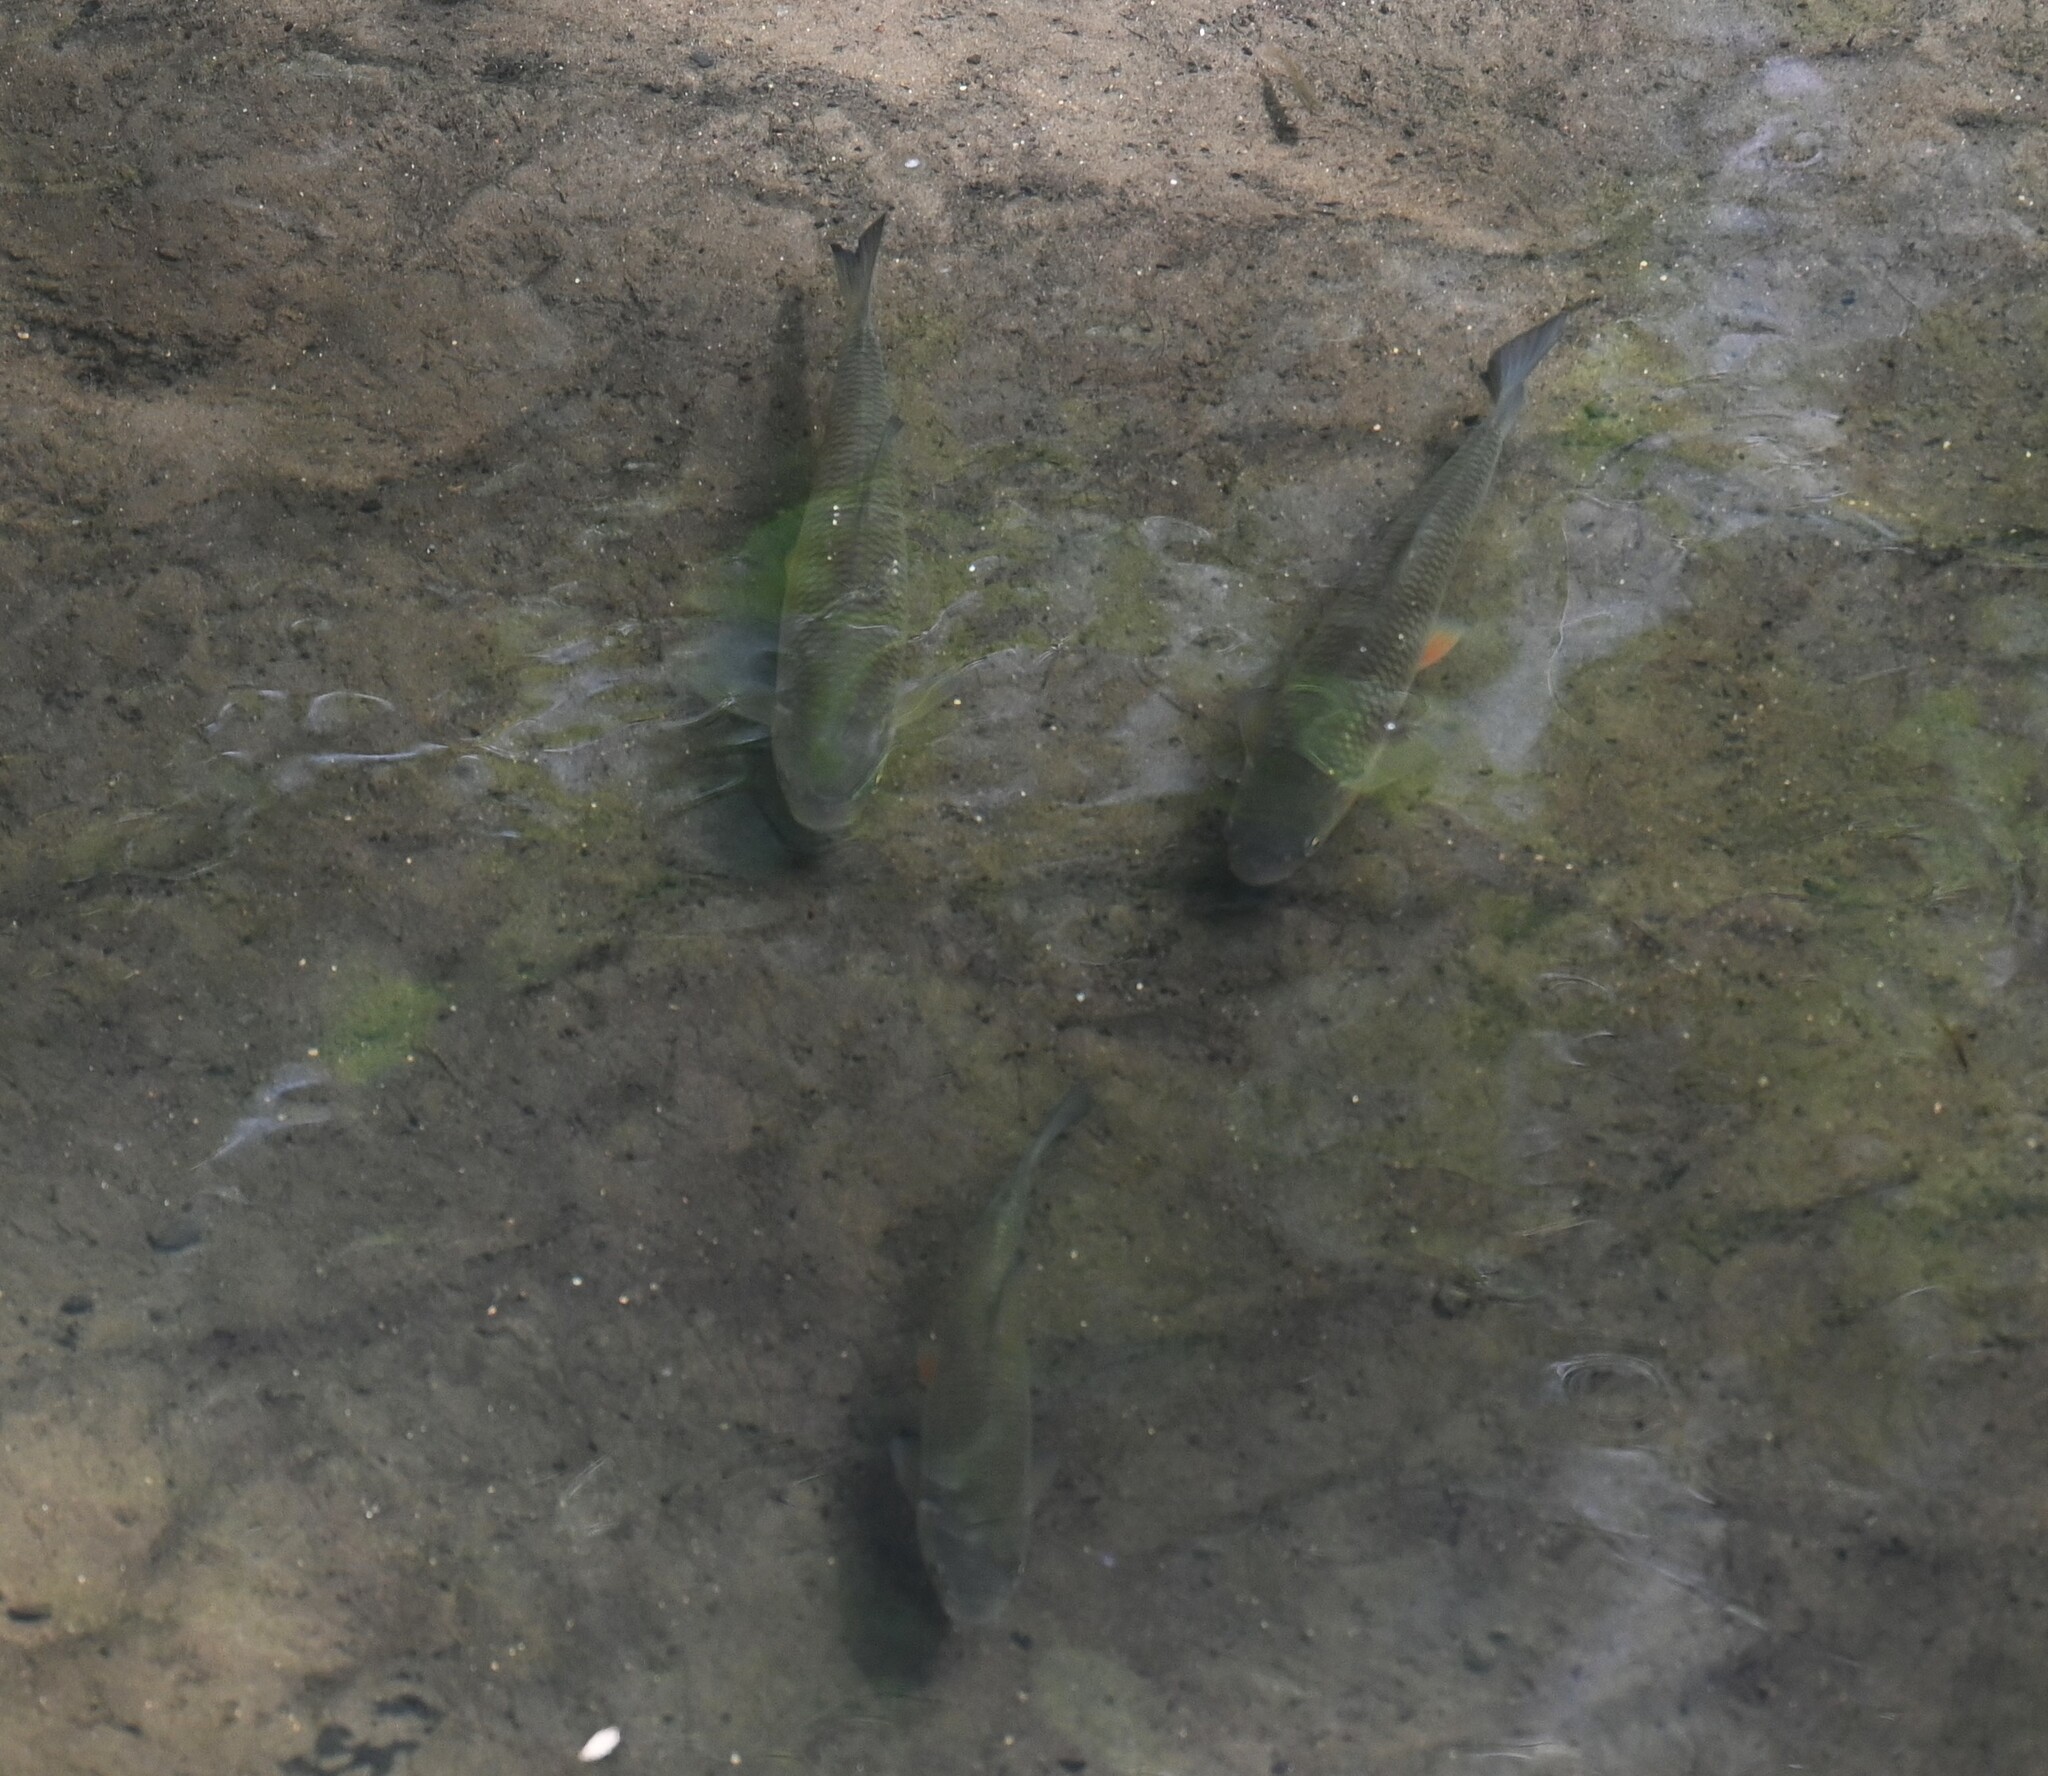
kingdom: Animalia
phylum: Chordata
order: Cypriniformes
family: Cyprinidae
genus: Squalius
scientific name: Squalius cephalus
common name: Chub
